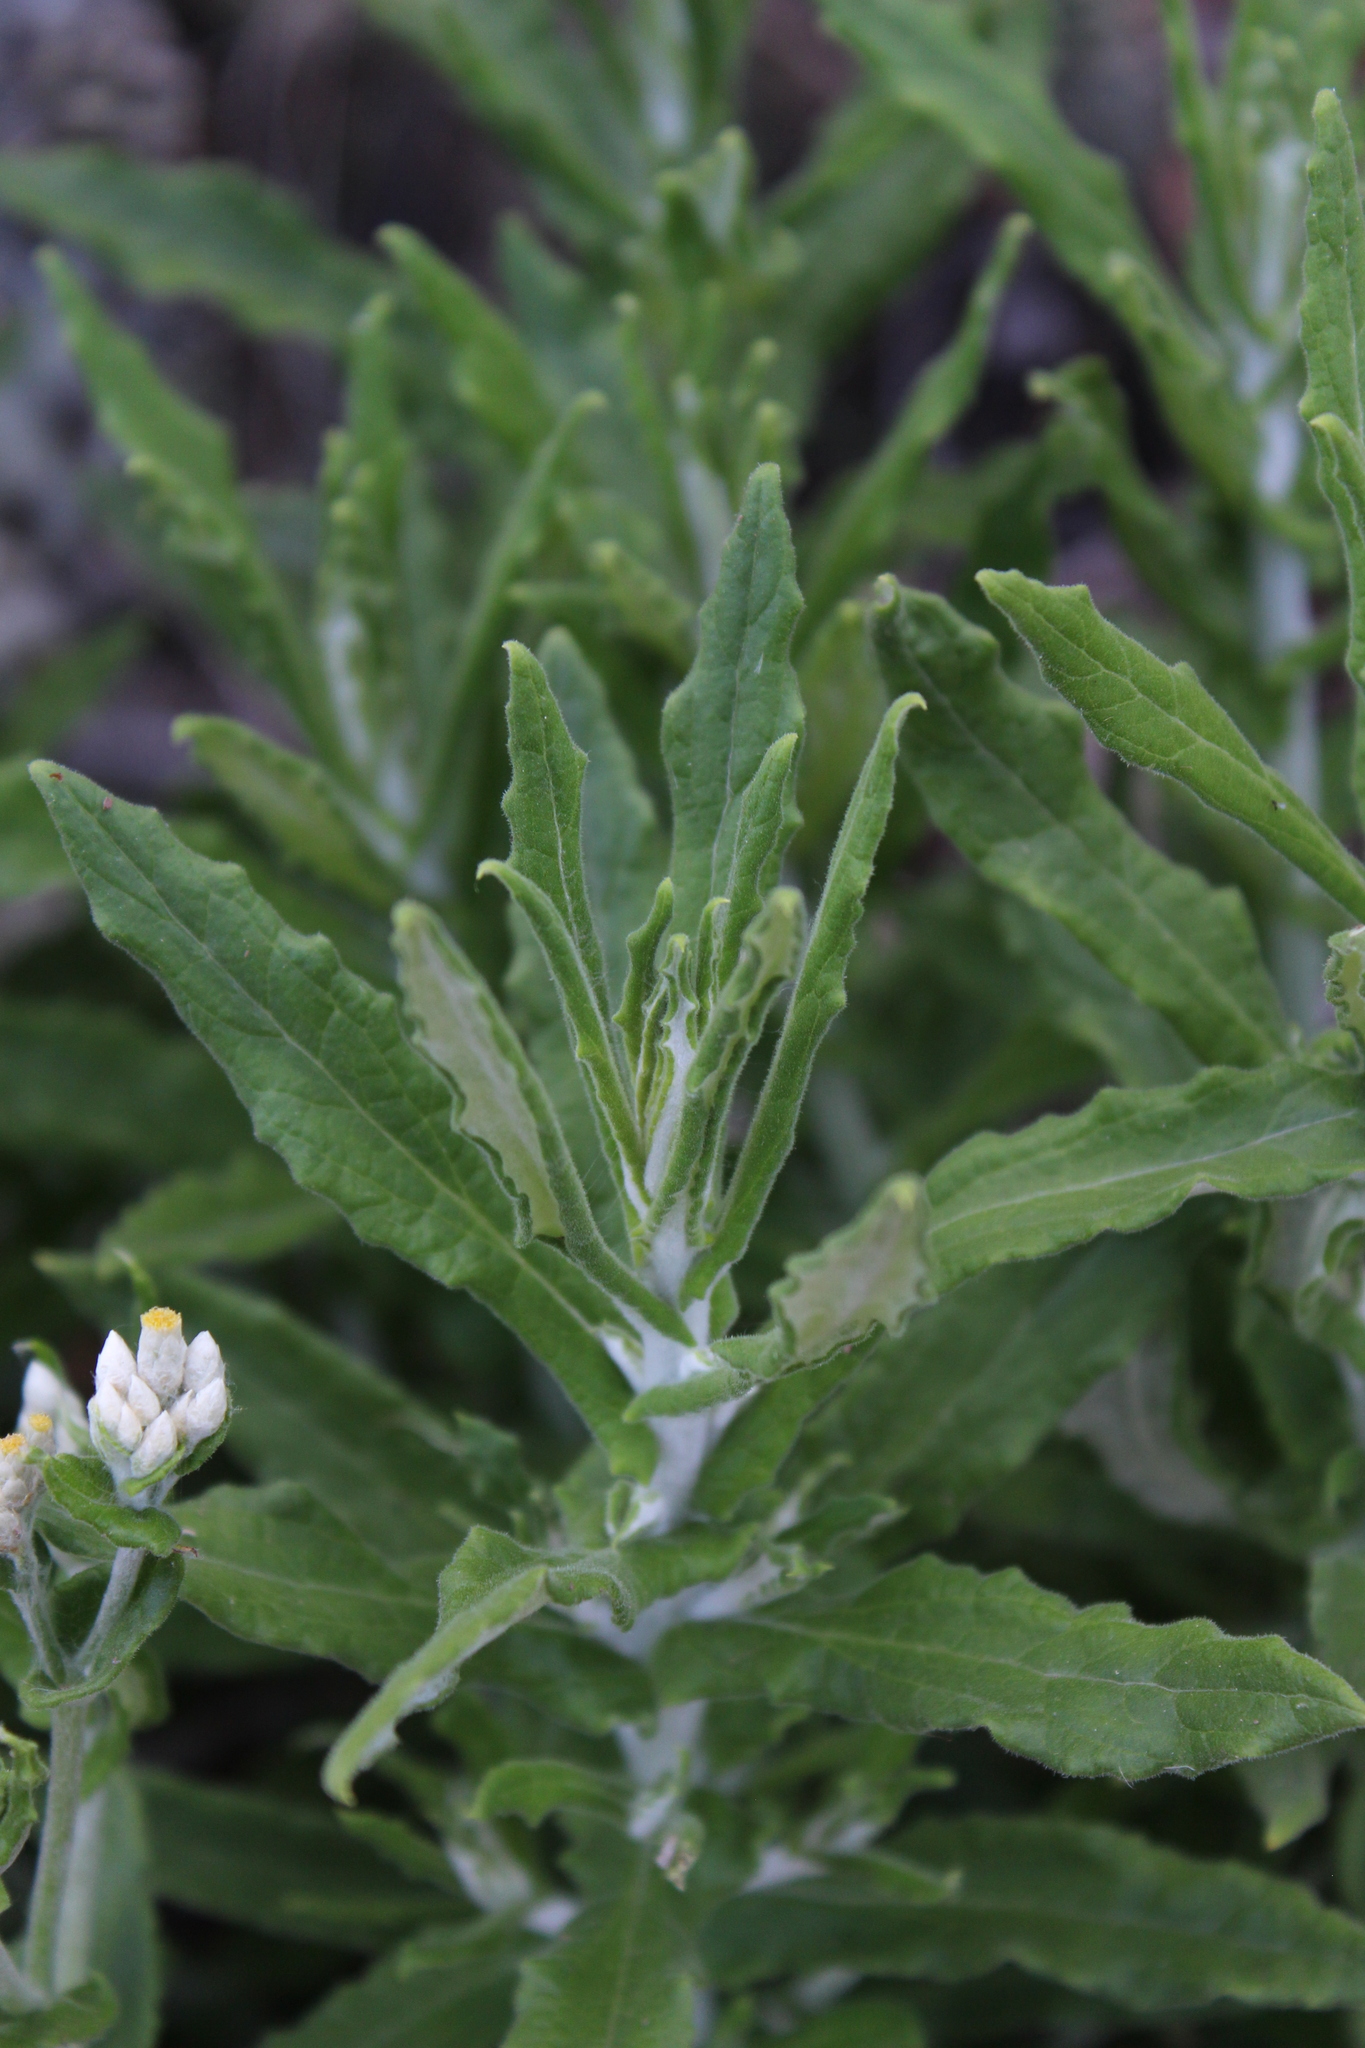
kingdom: Plantae
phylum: Tracheophyta
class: Magnoliopsida
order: Asterales
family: Asteraceae
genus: Pseudognaphalium
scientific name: Pseudognaphalium biolettii
